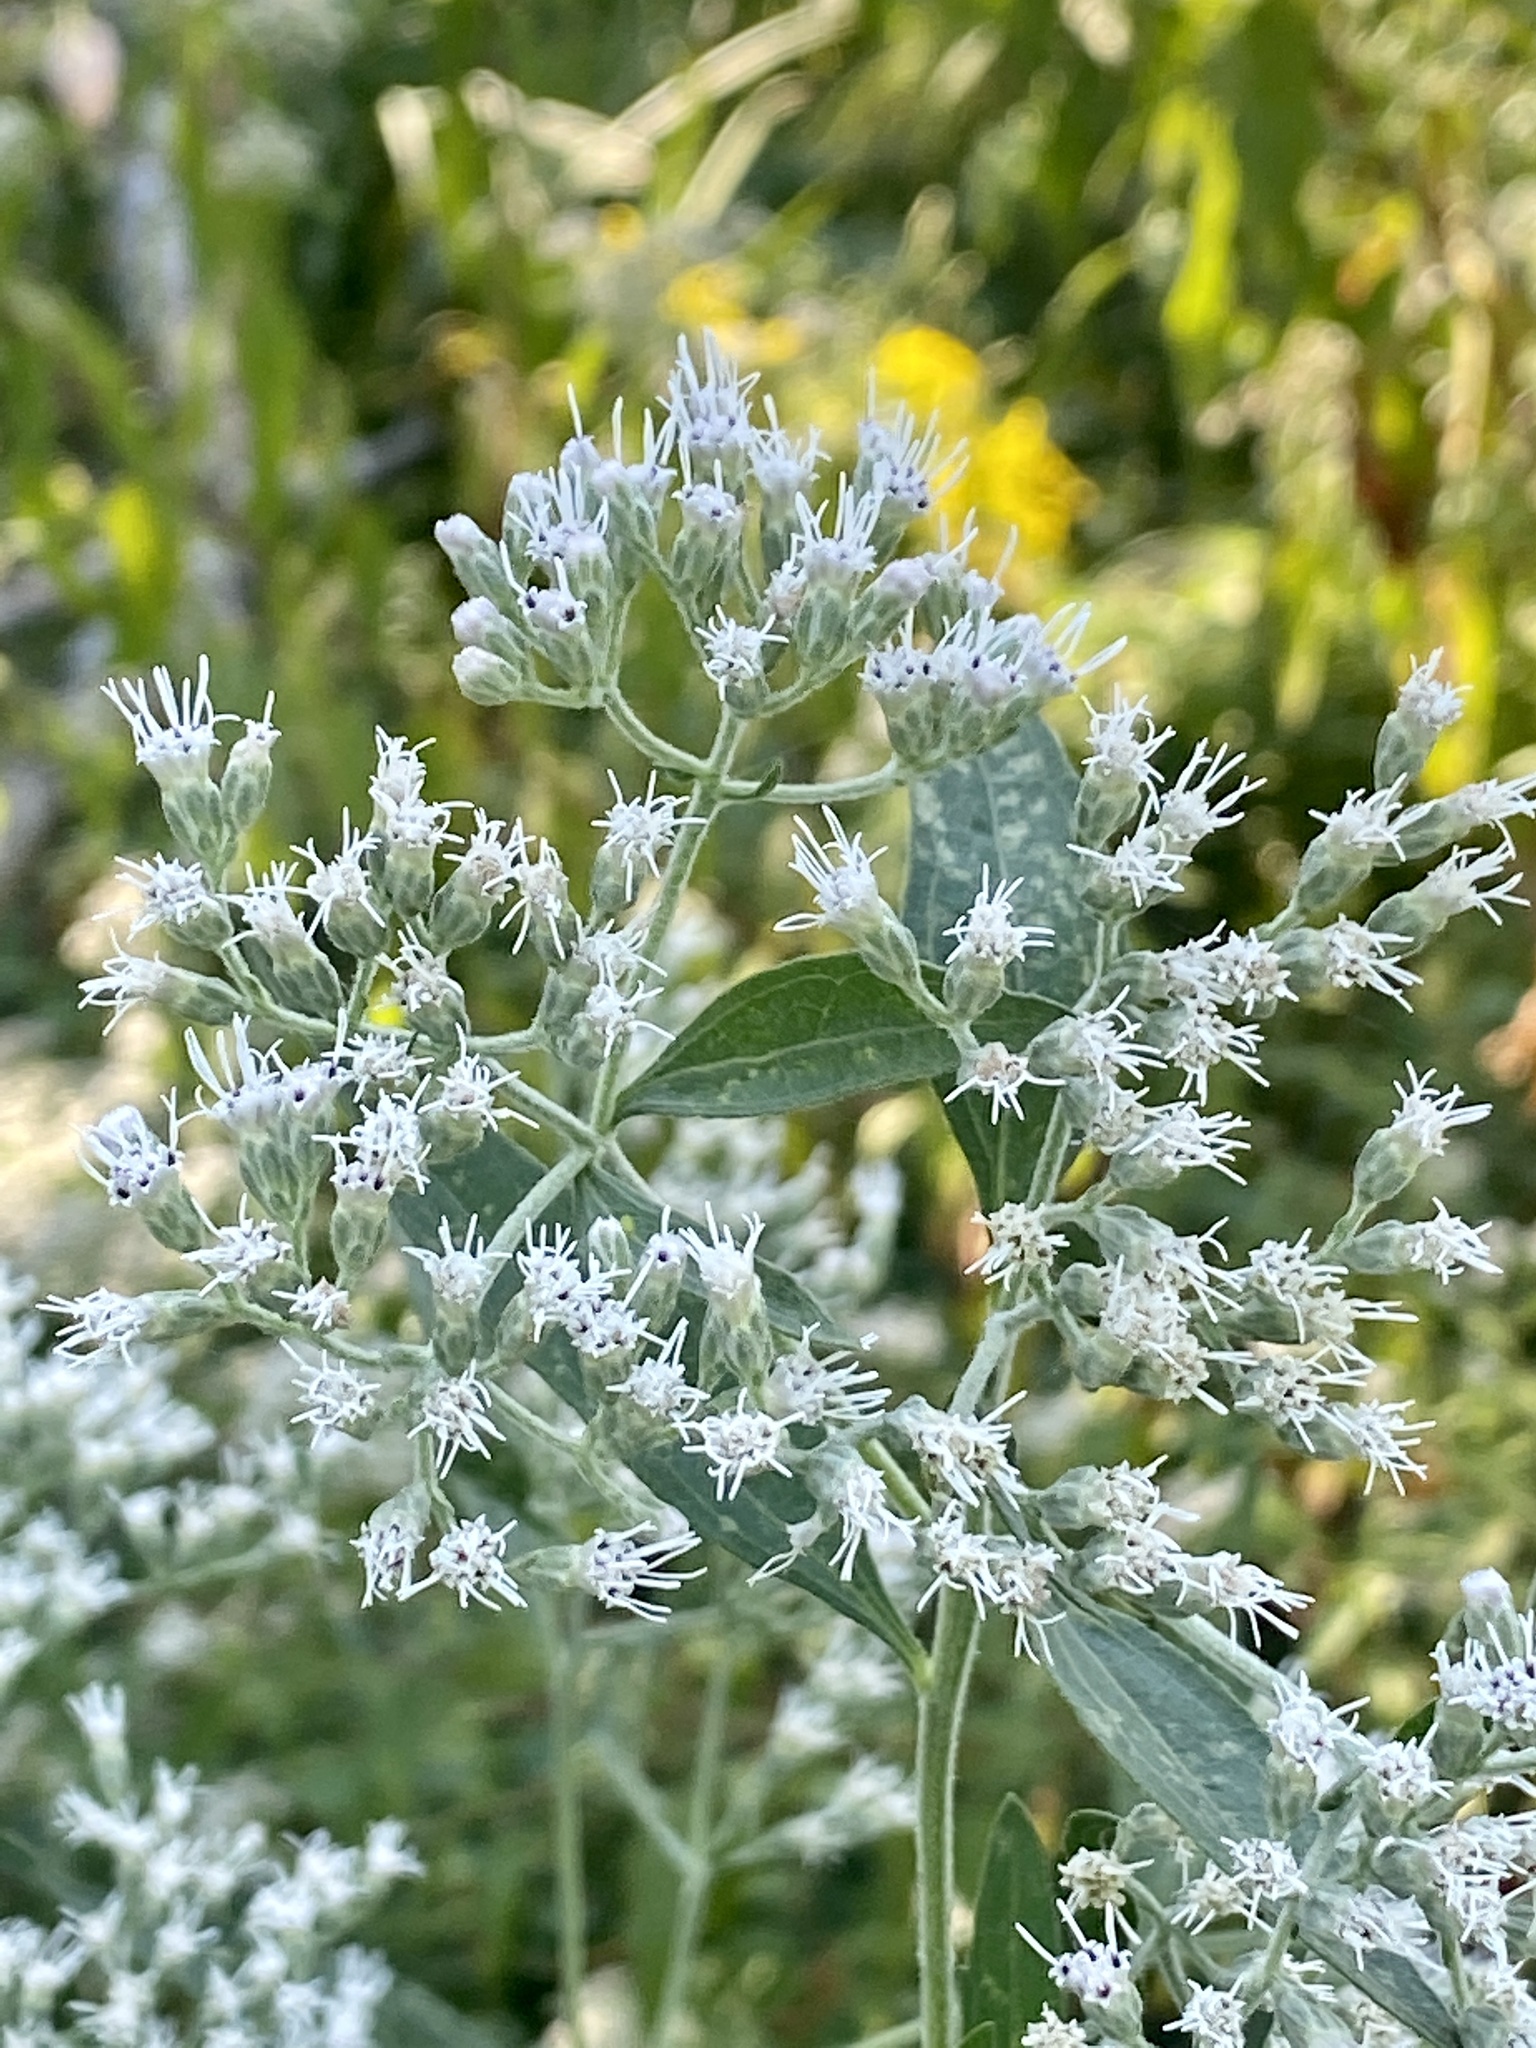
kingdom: Plantae
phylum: Tracheophyta
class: Magnoliopsida
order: Asterales
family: Asteraceae
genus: Eupatorium
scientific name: Eupatorium serotinum
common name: Late boneset
